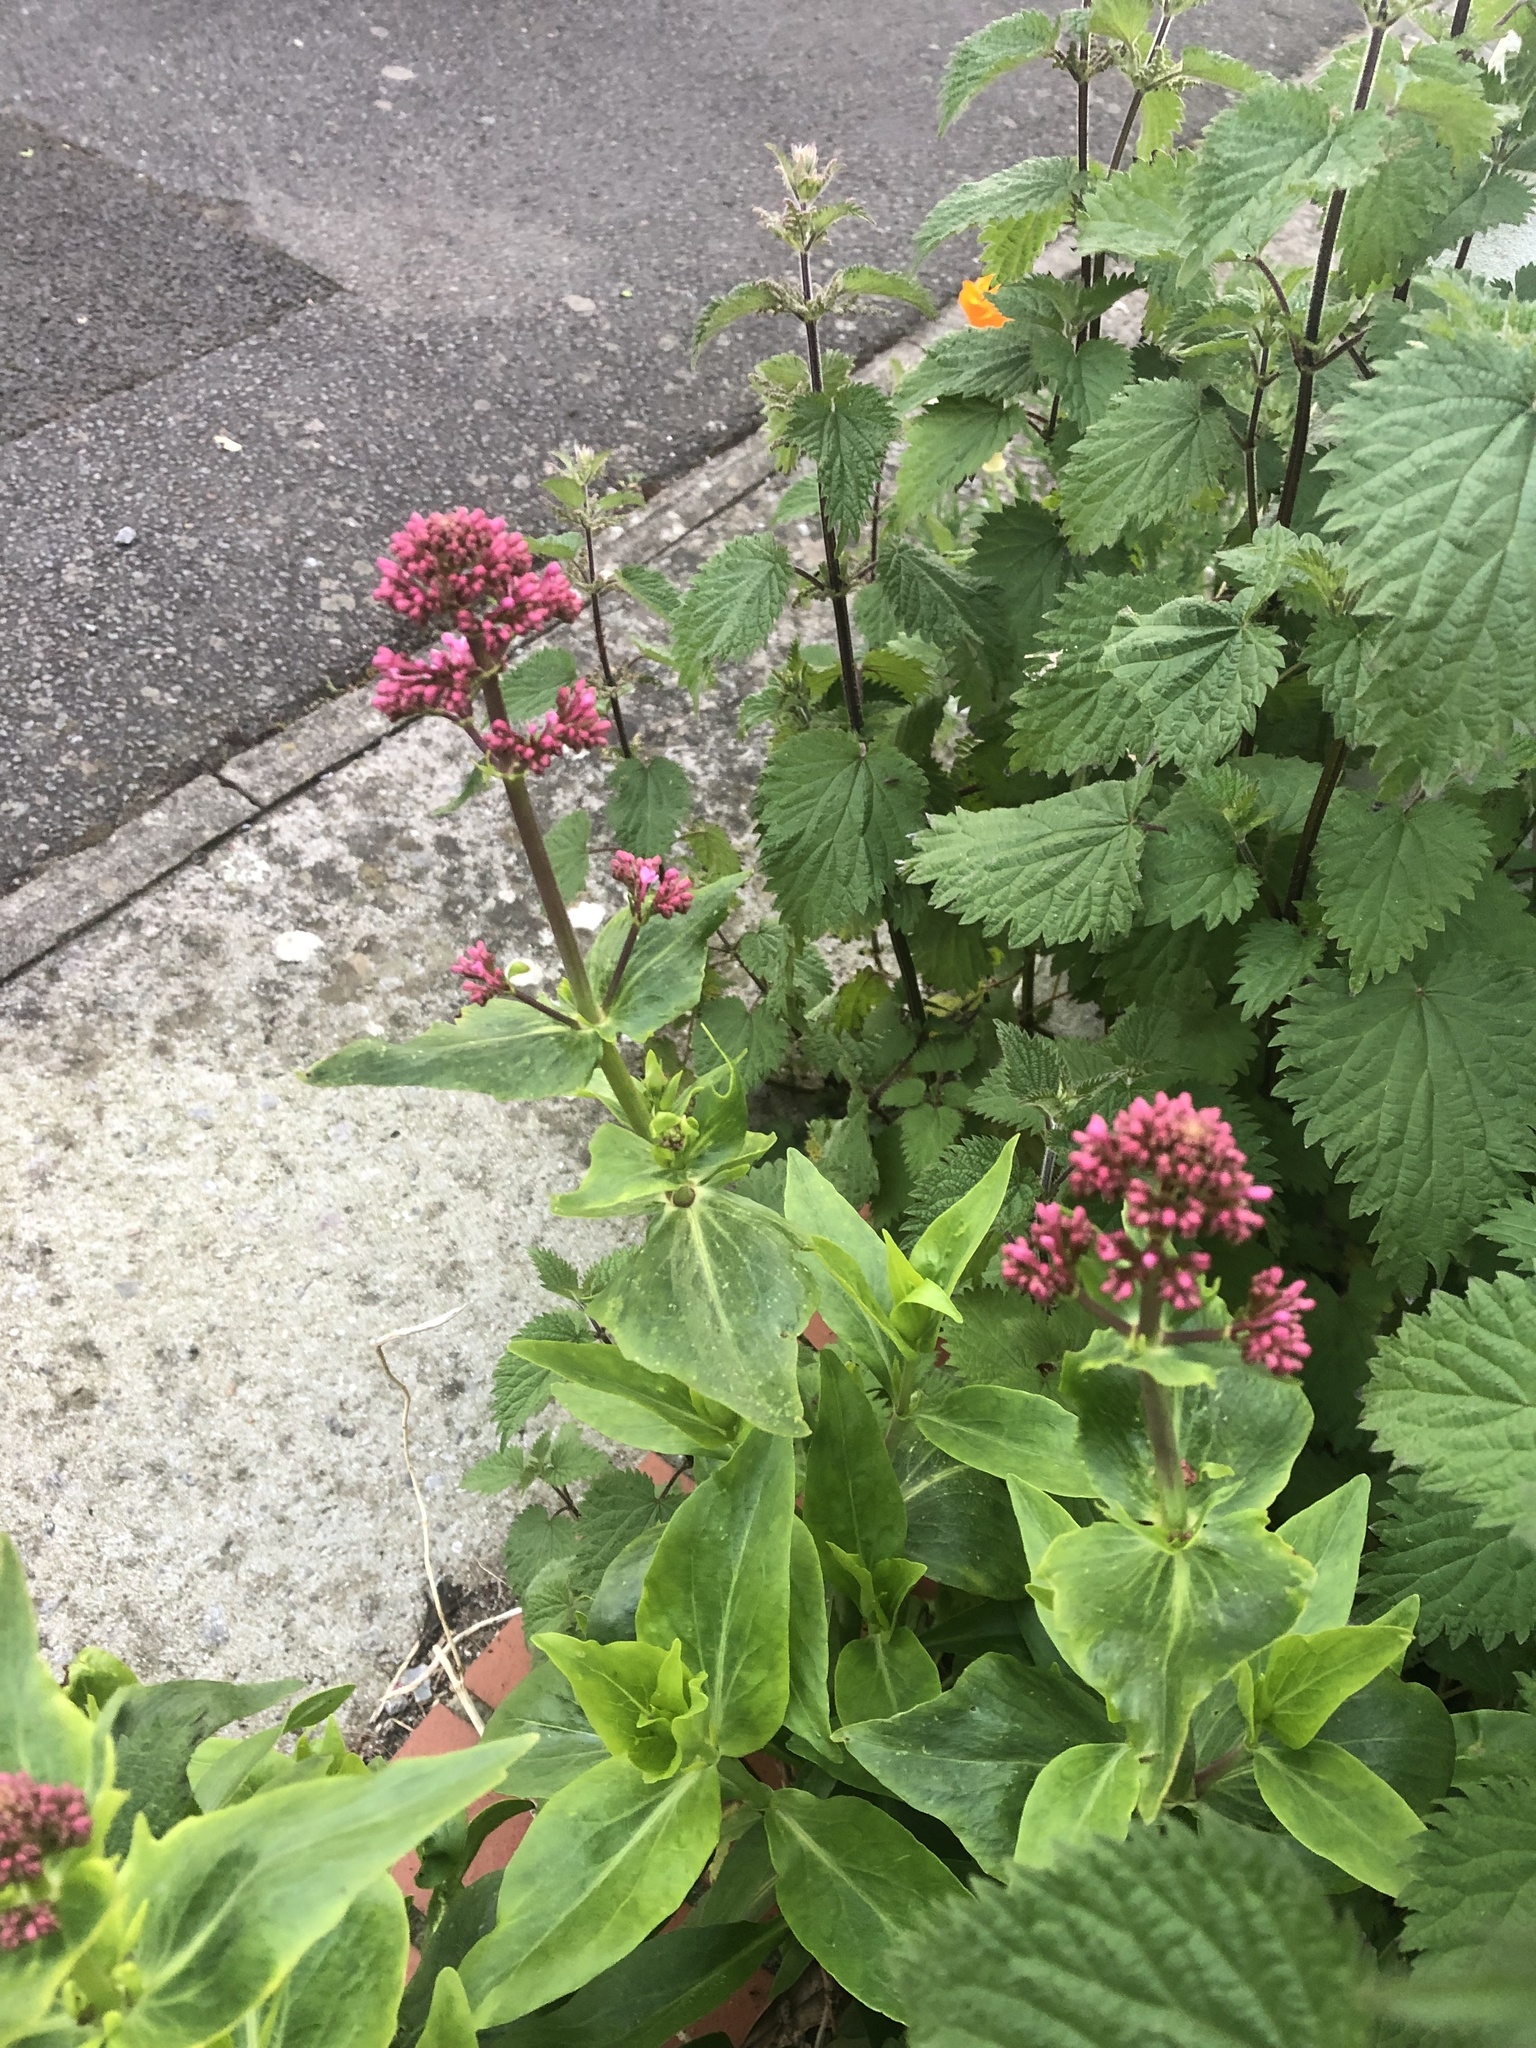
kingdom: Plantae
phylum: Tracheophyta
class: Magnoliopsida
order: Dipsacales
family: Caprifoliaceae
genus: Centranthus
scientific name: Centranthus ruber
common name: Red valerian
